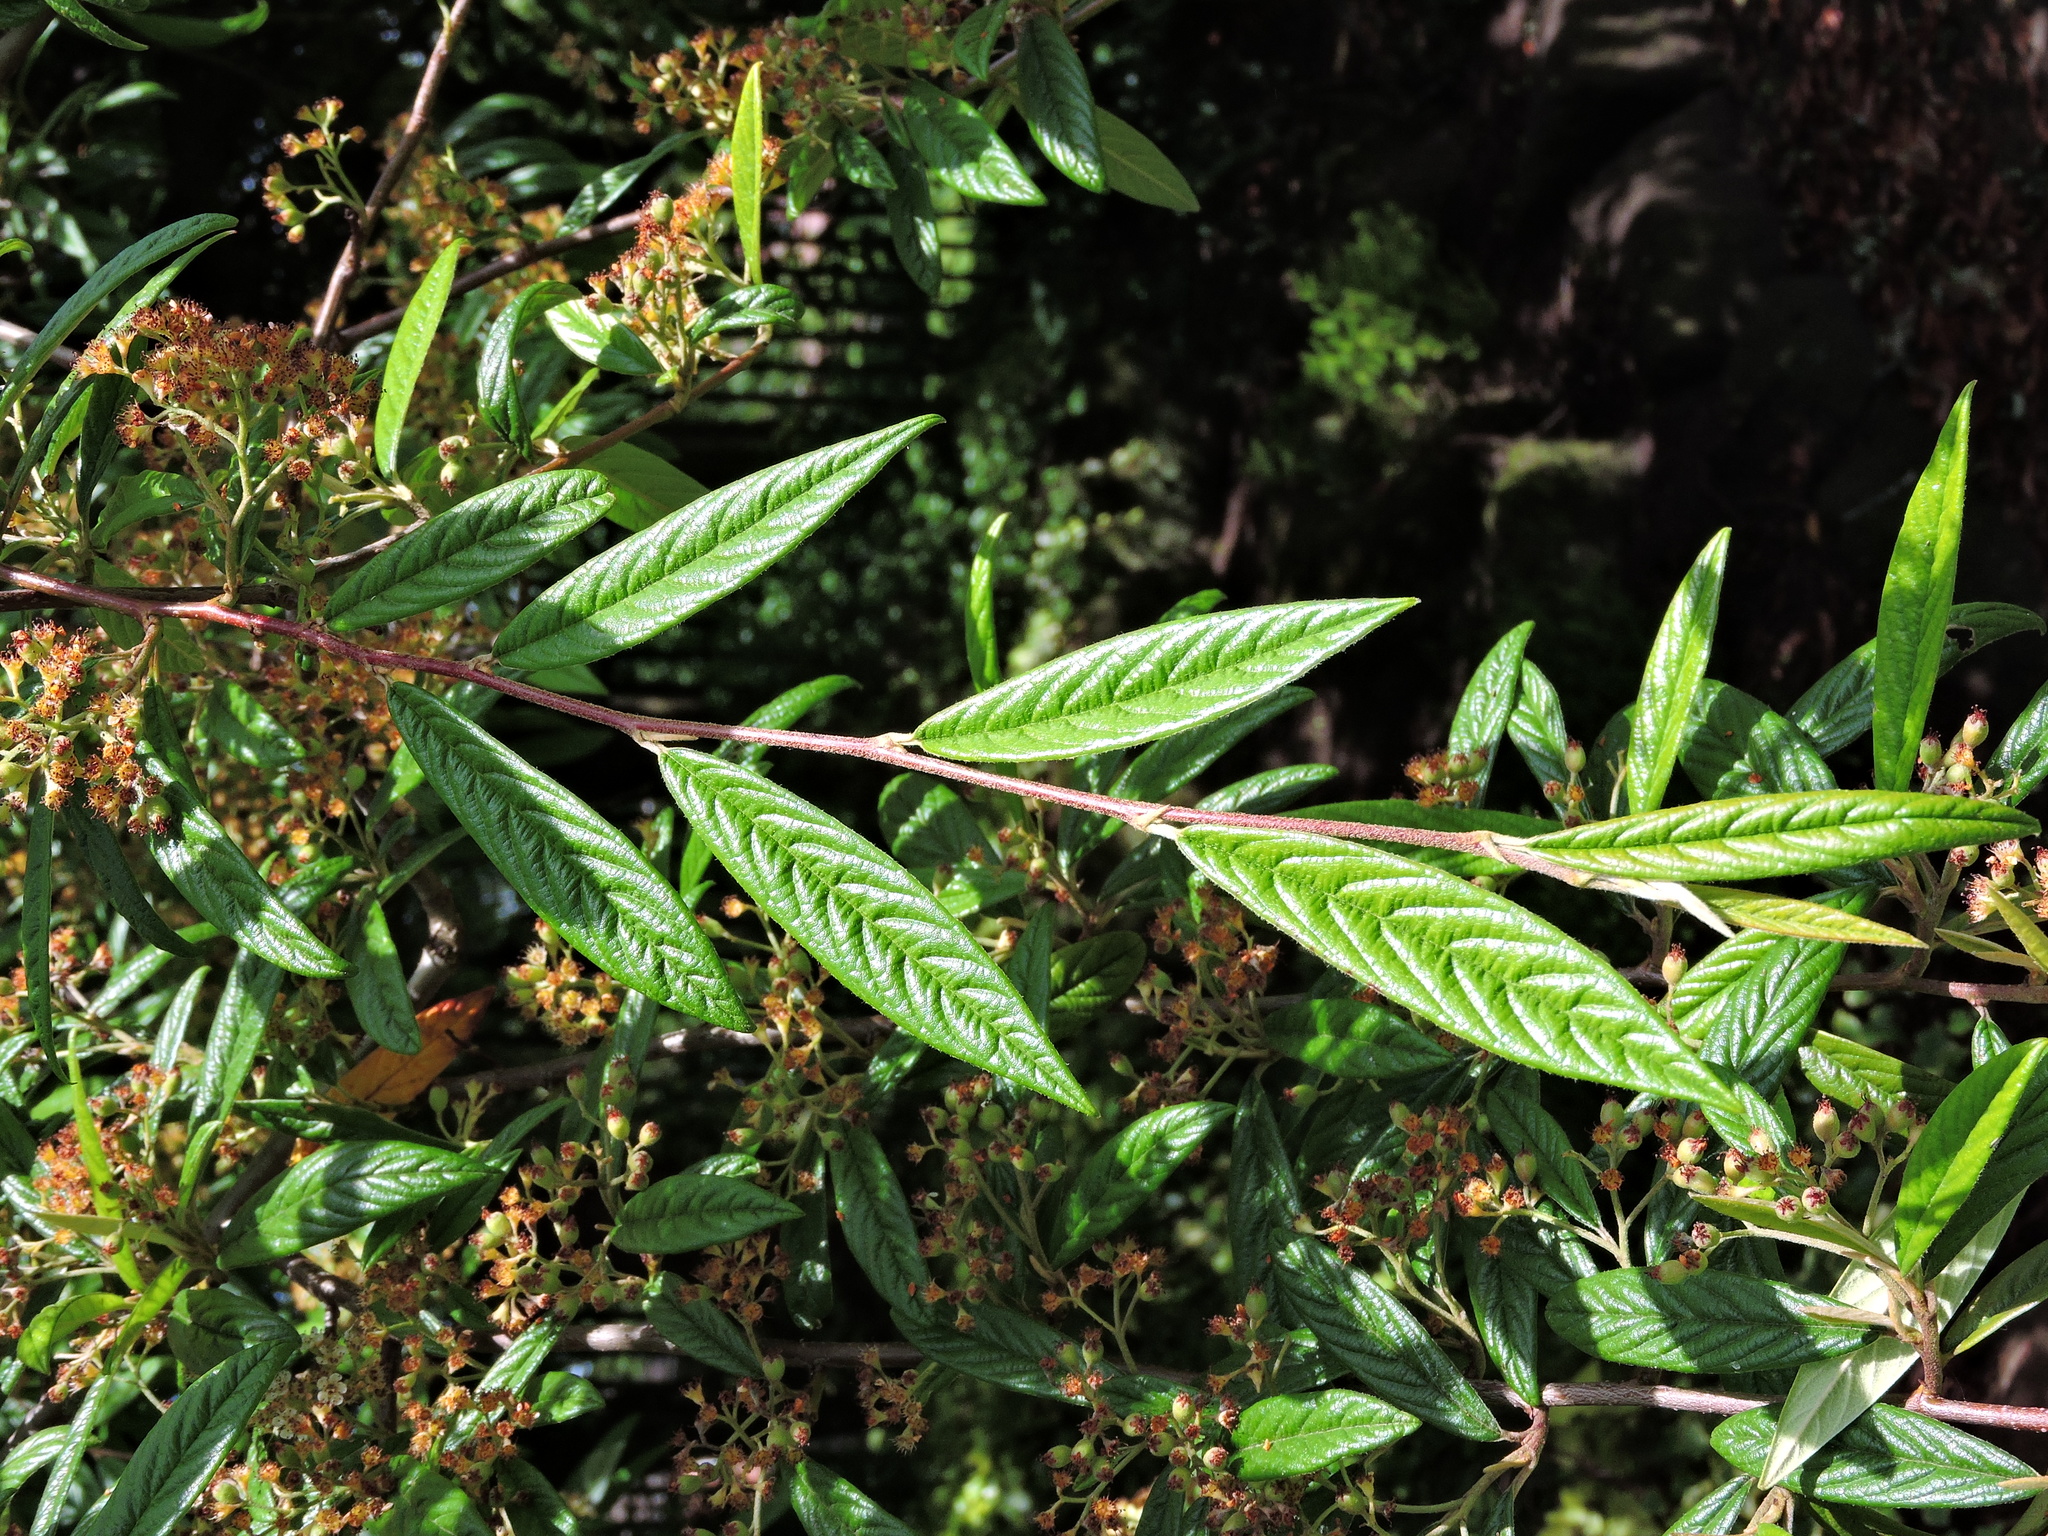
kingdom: Plantae
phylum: Tracheophyta
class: Magnoliopsida
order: Rosales
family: Rosaceae
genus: Cotoneaster
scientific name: Cotoneaster salicifolius
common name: Willow-leaved cotoneaster
